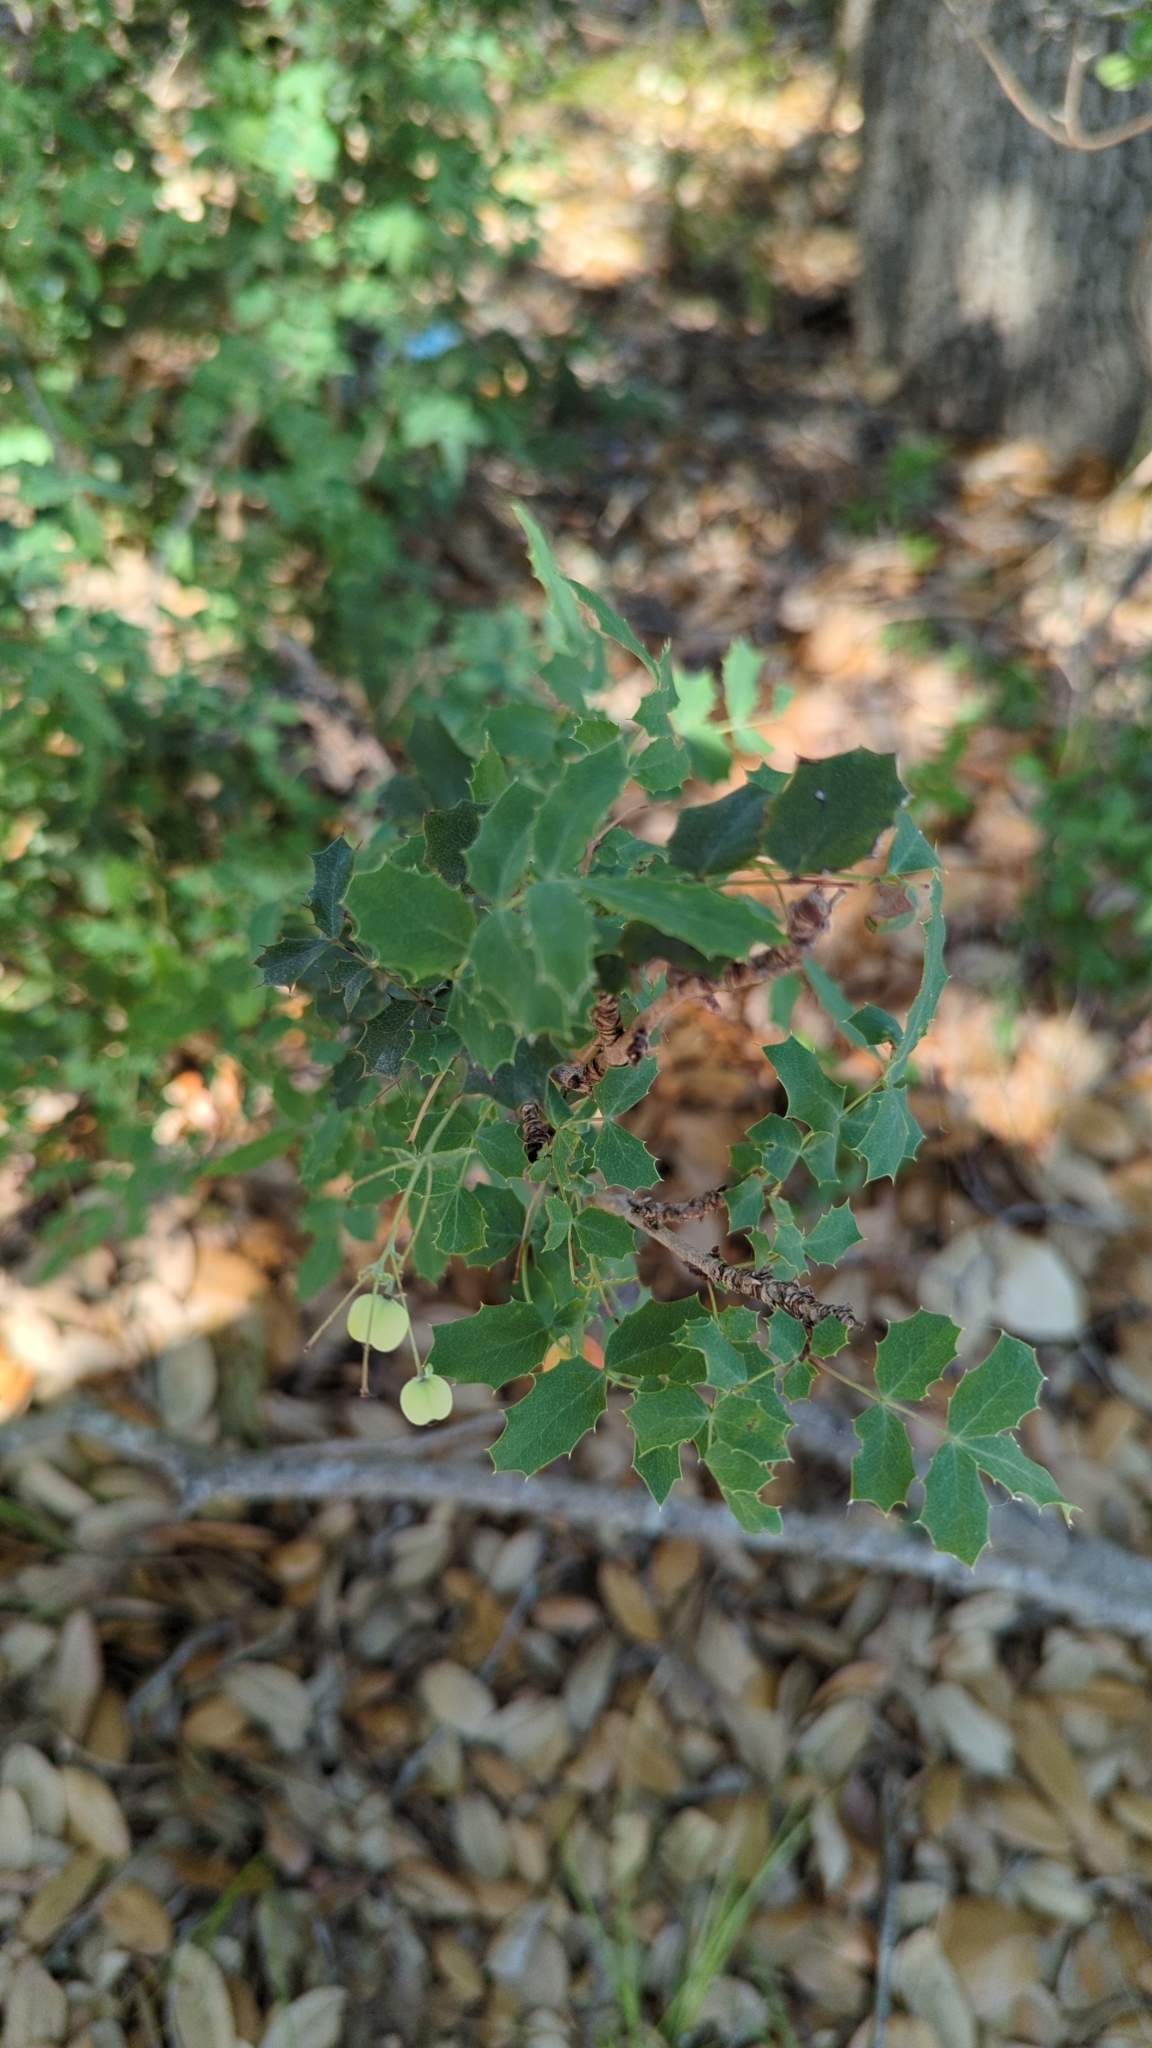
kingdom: Plantae
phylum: Tracheophyta
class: Magnoliopsida
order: Ranunculales
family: Berberidaceae
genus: Berberis
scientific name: Berberis swaseyi
